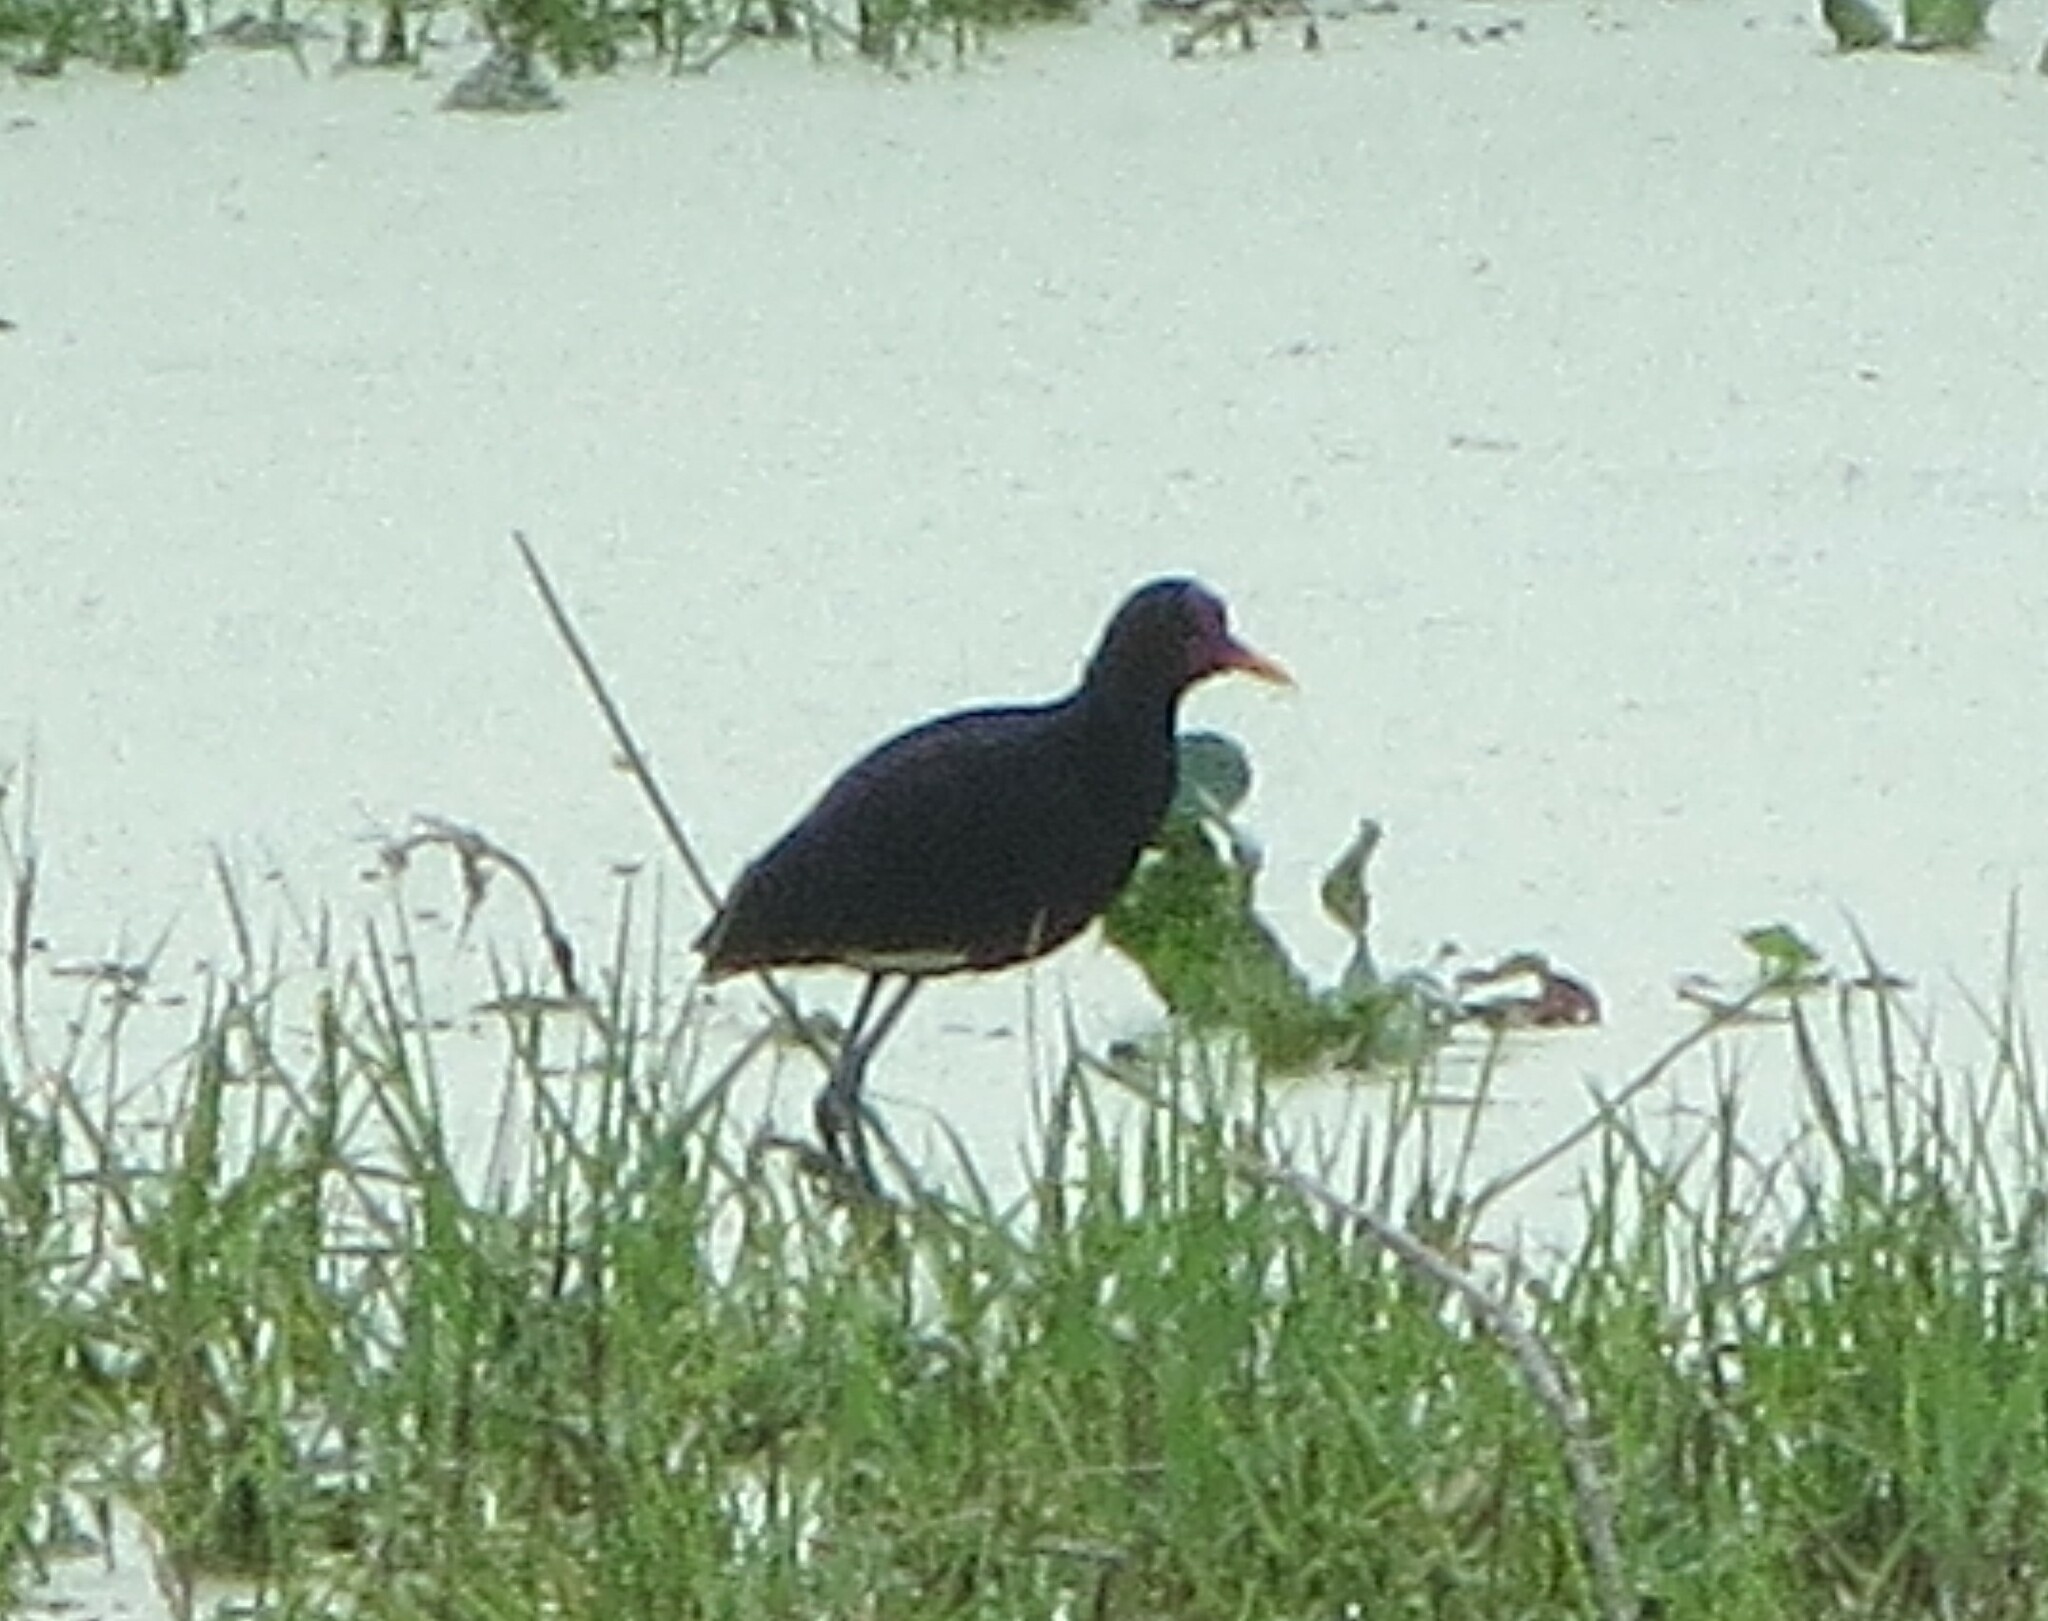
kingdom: Animalia
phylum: Chordata
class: Aves
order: Charadriiformes
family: Jacanidae
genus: Jacana
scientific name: Jacana jacana
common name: Wattled jacana
